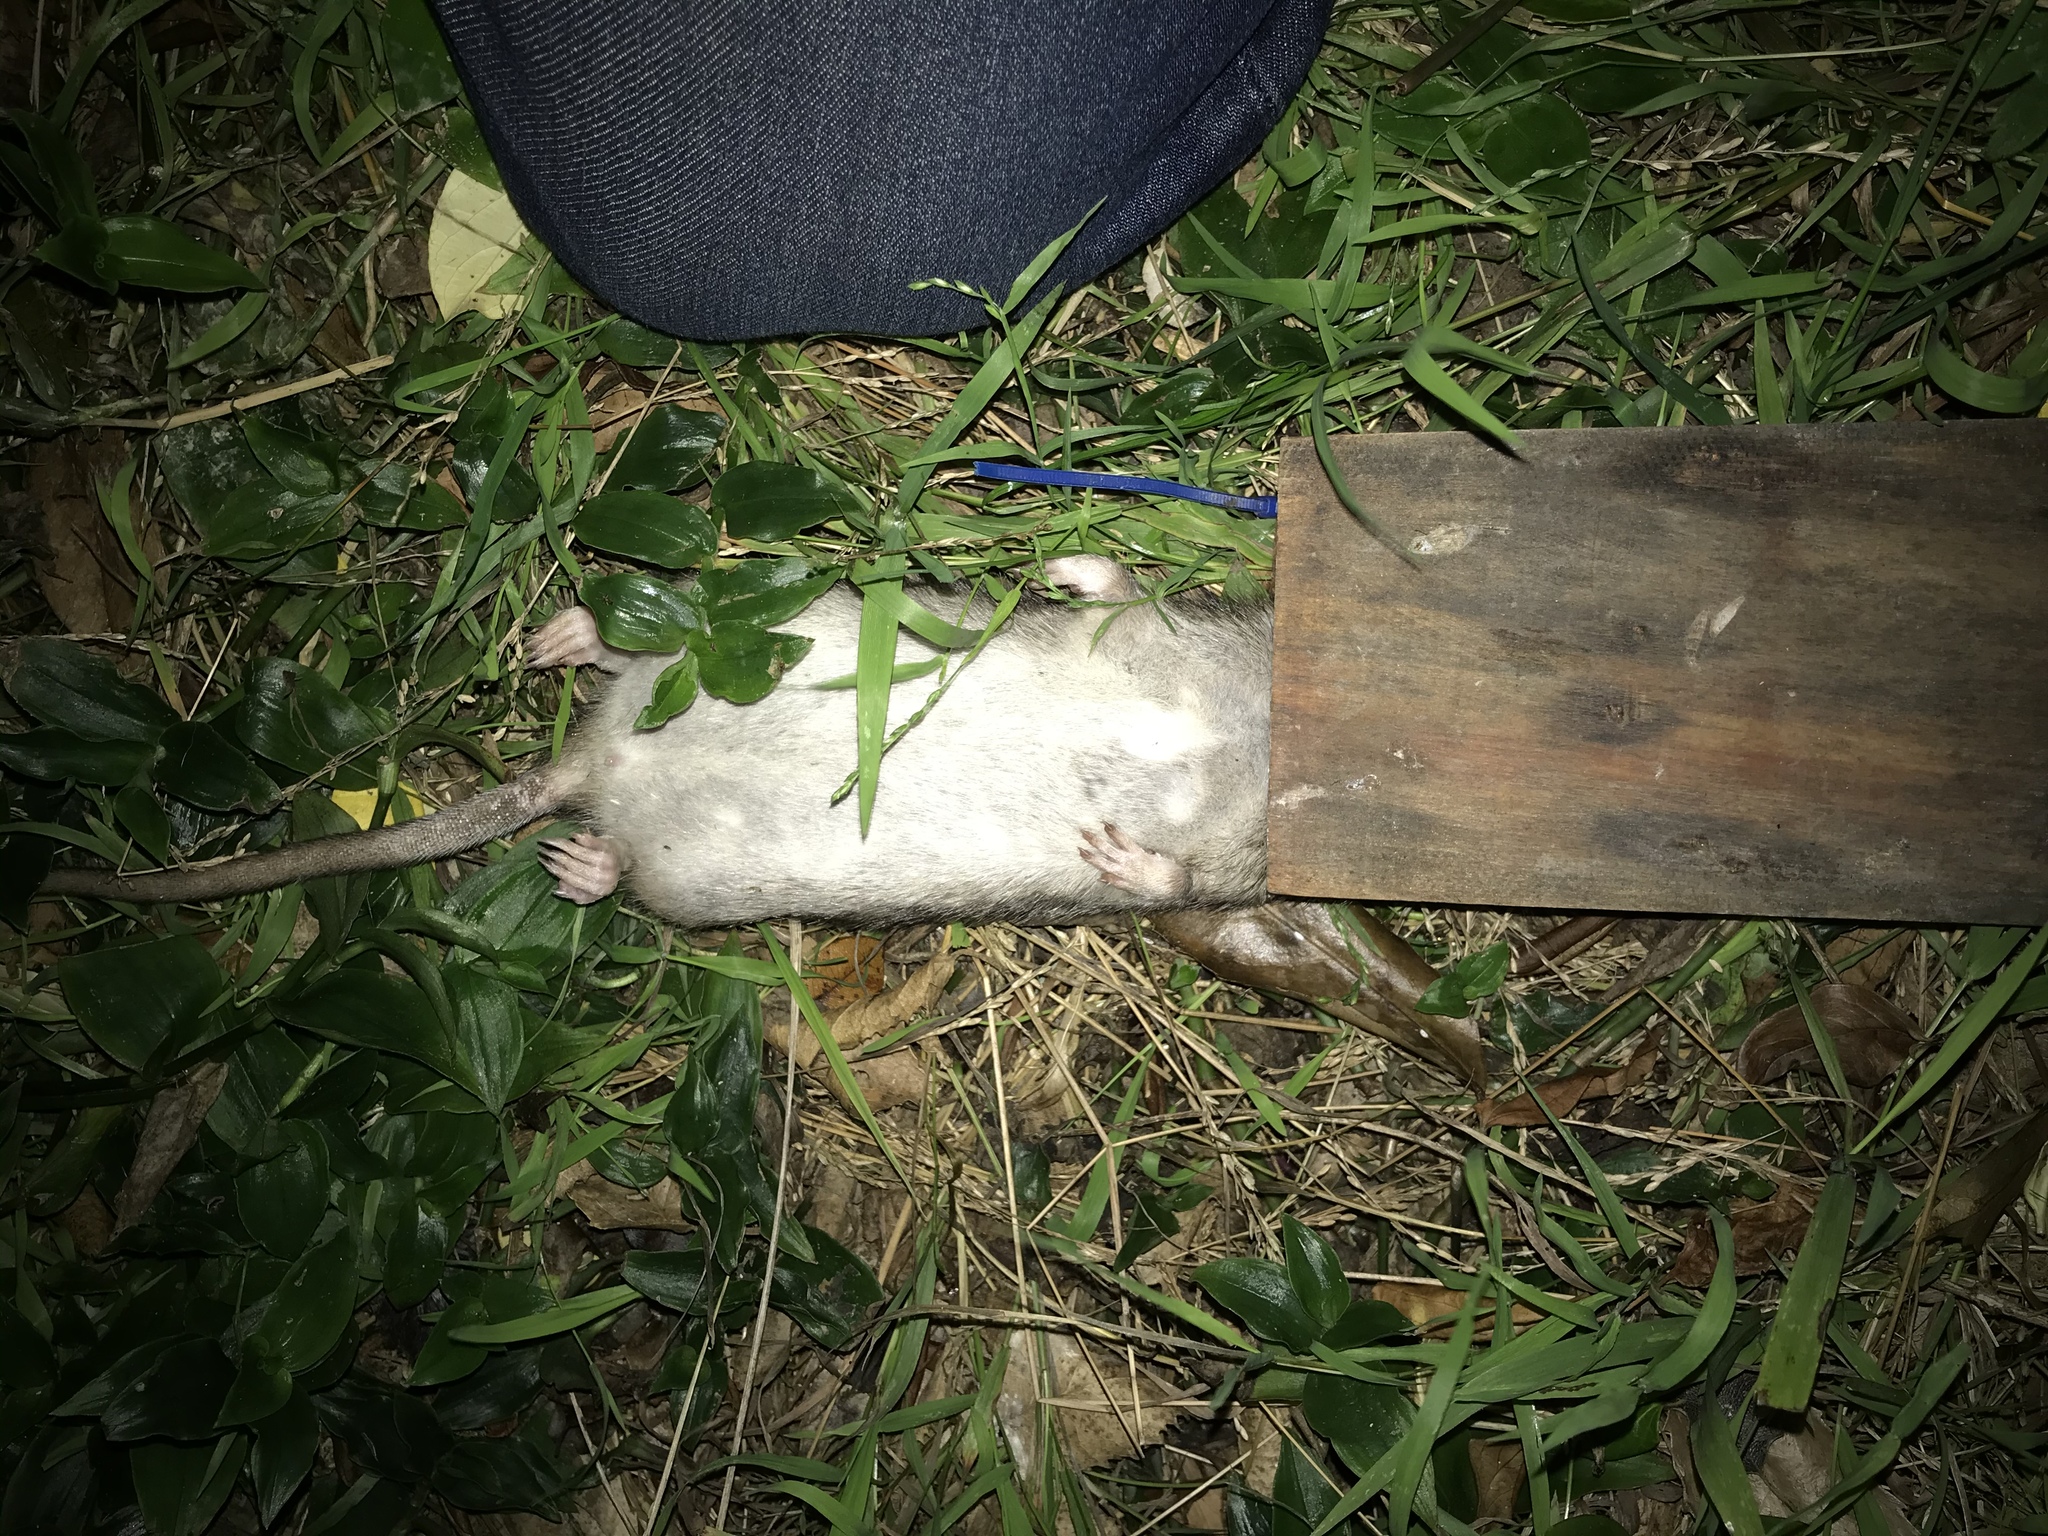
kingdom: Animalia
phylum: Chordata
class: Mammalia
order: Rodentia
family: Muridae
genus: Rattus
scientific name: Rattus norvegicus
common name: Brown rat
